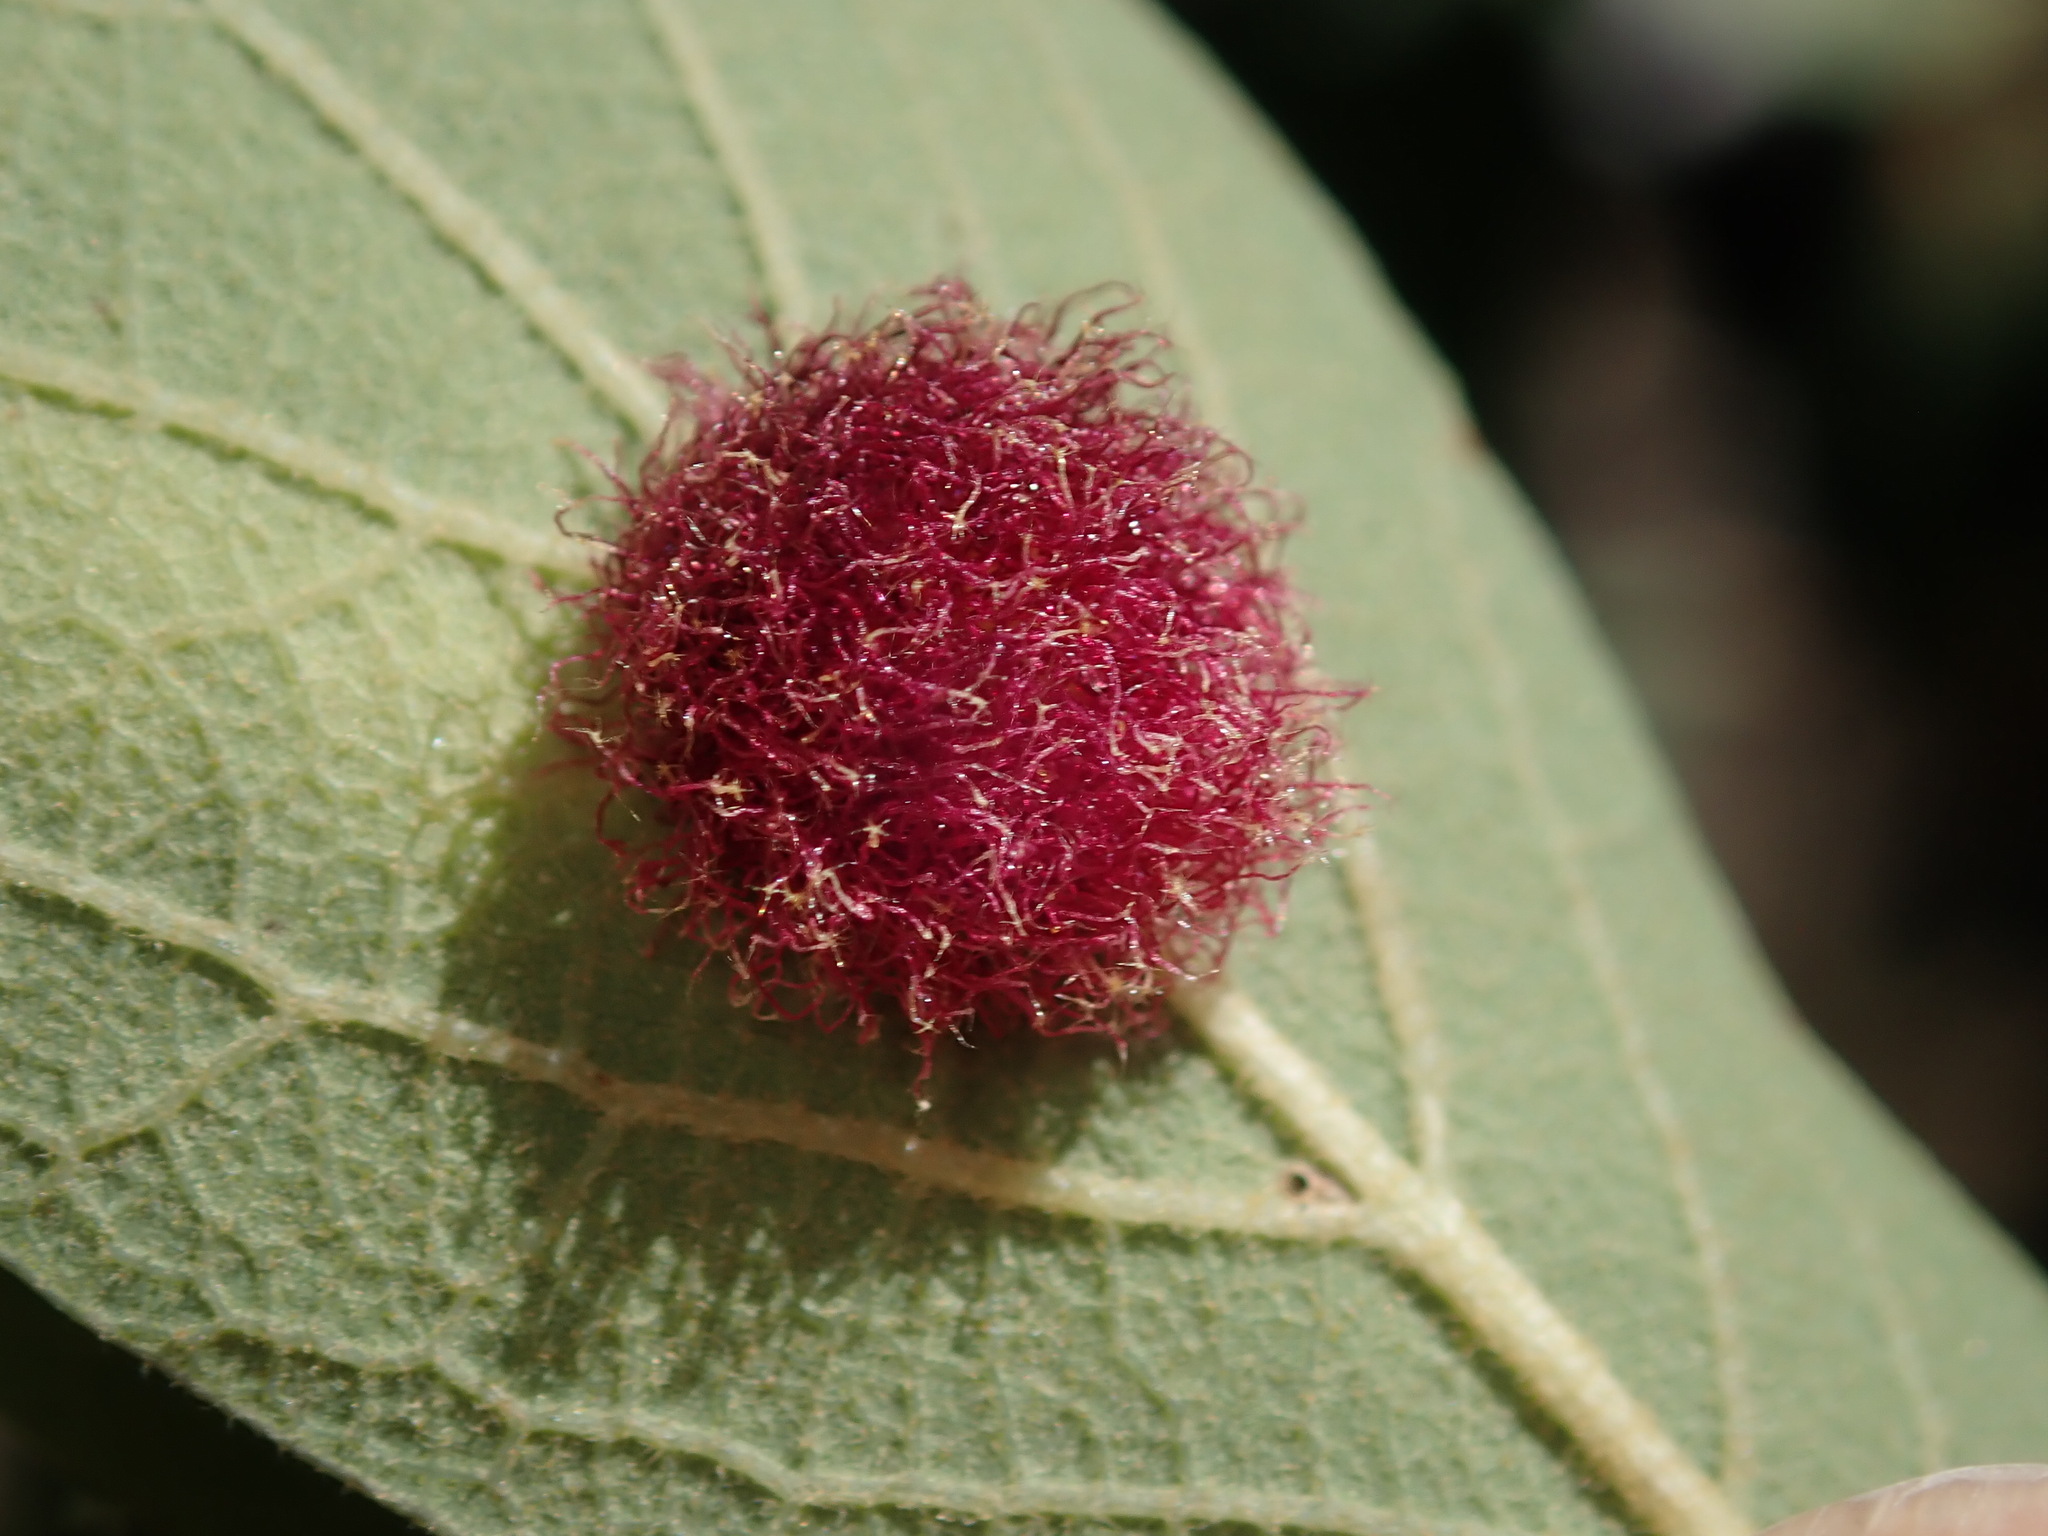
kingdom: Animalia
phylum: Arthropoda
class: Insecta
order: Hymenoptera
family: Cynipidae
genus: Cynips
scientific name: Cynips
